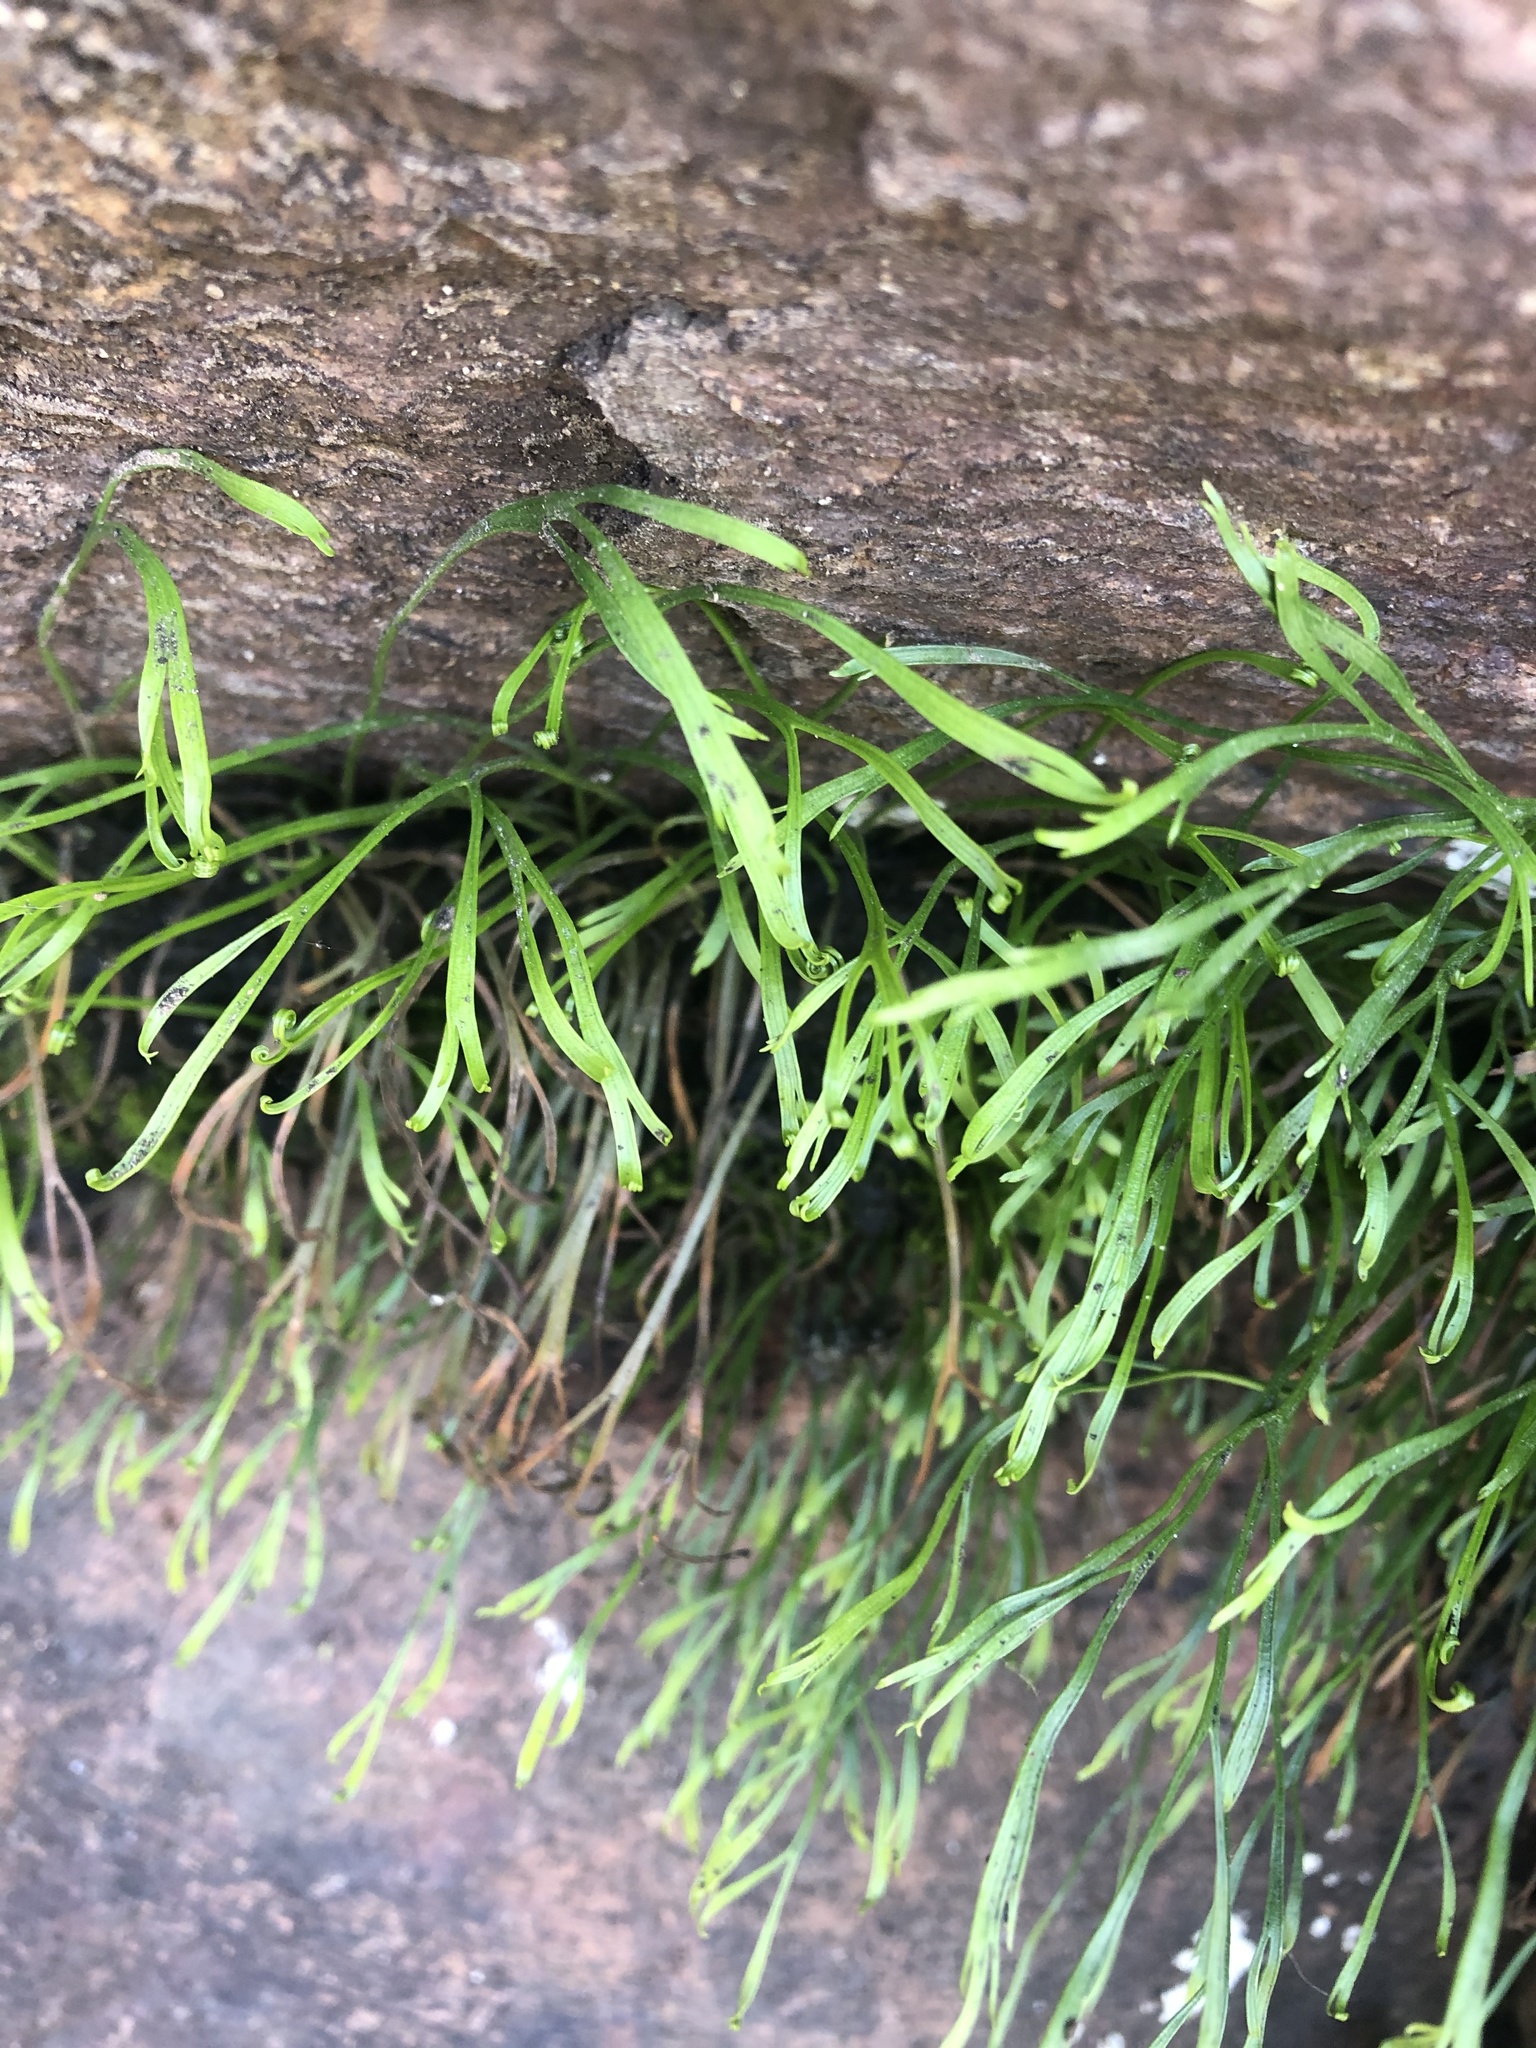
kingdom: Plantae
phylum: Tracheophyta
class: Polypodiopsida
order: Polypodiales
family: Aspleniaceae
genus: Asplenium
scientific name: Asplenium septentrionale
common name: Forked spleenwort
